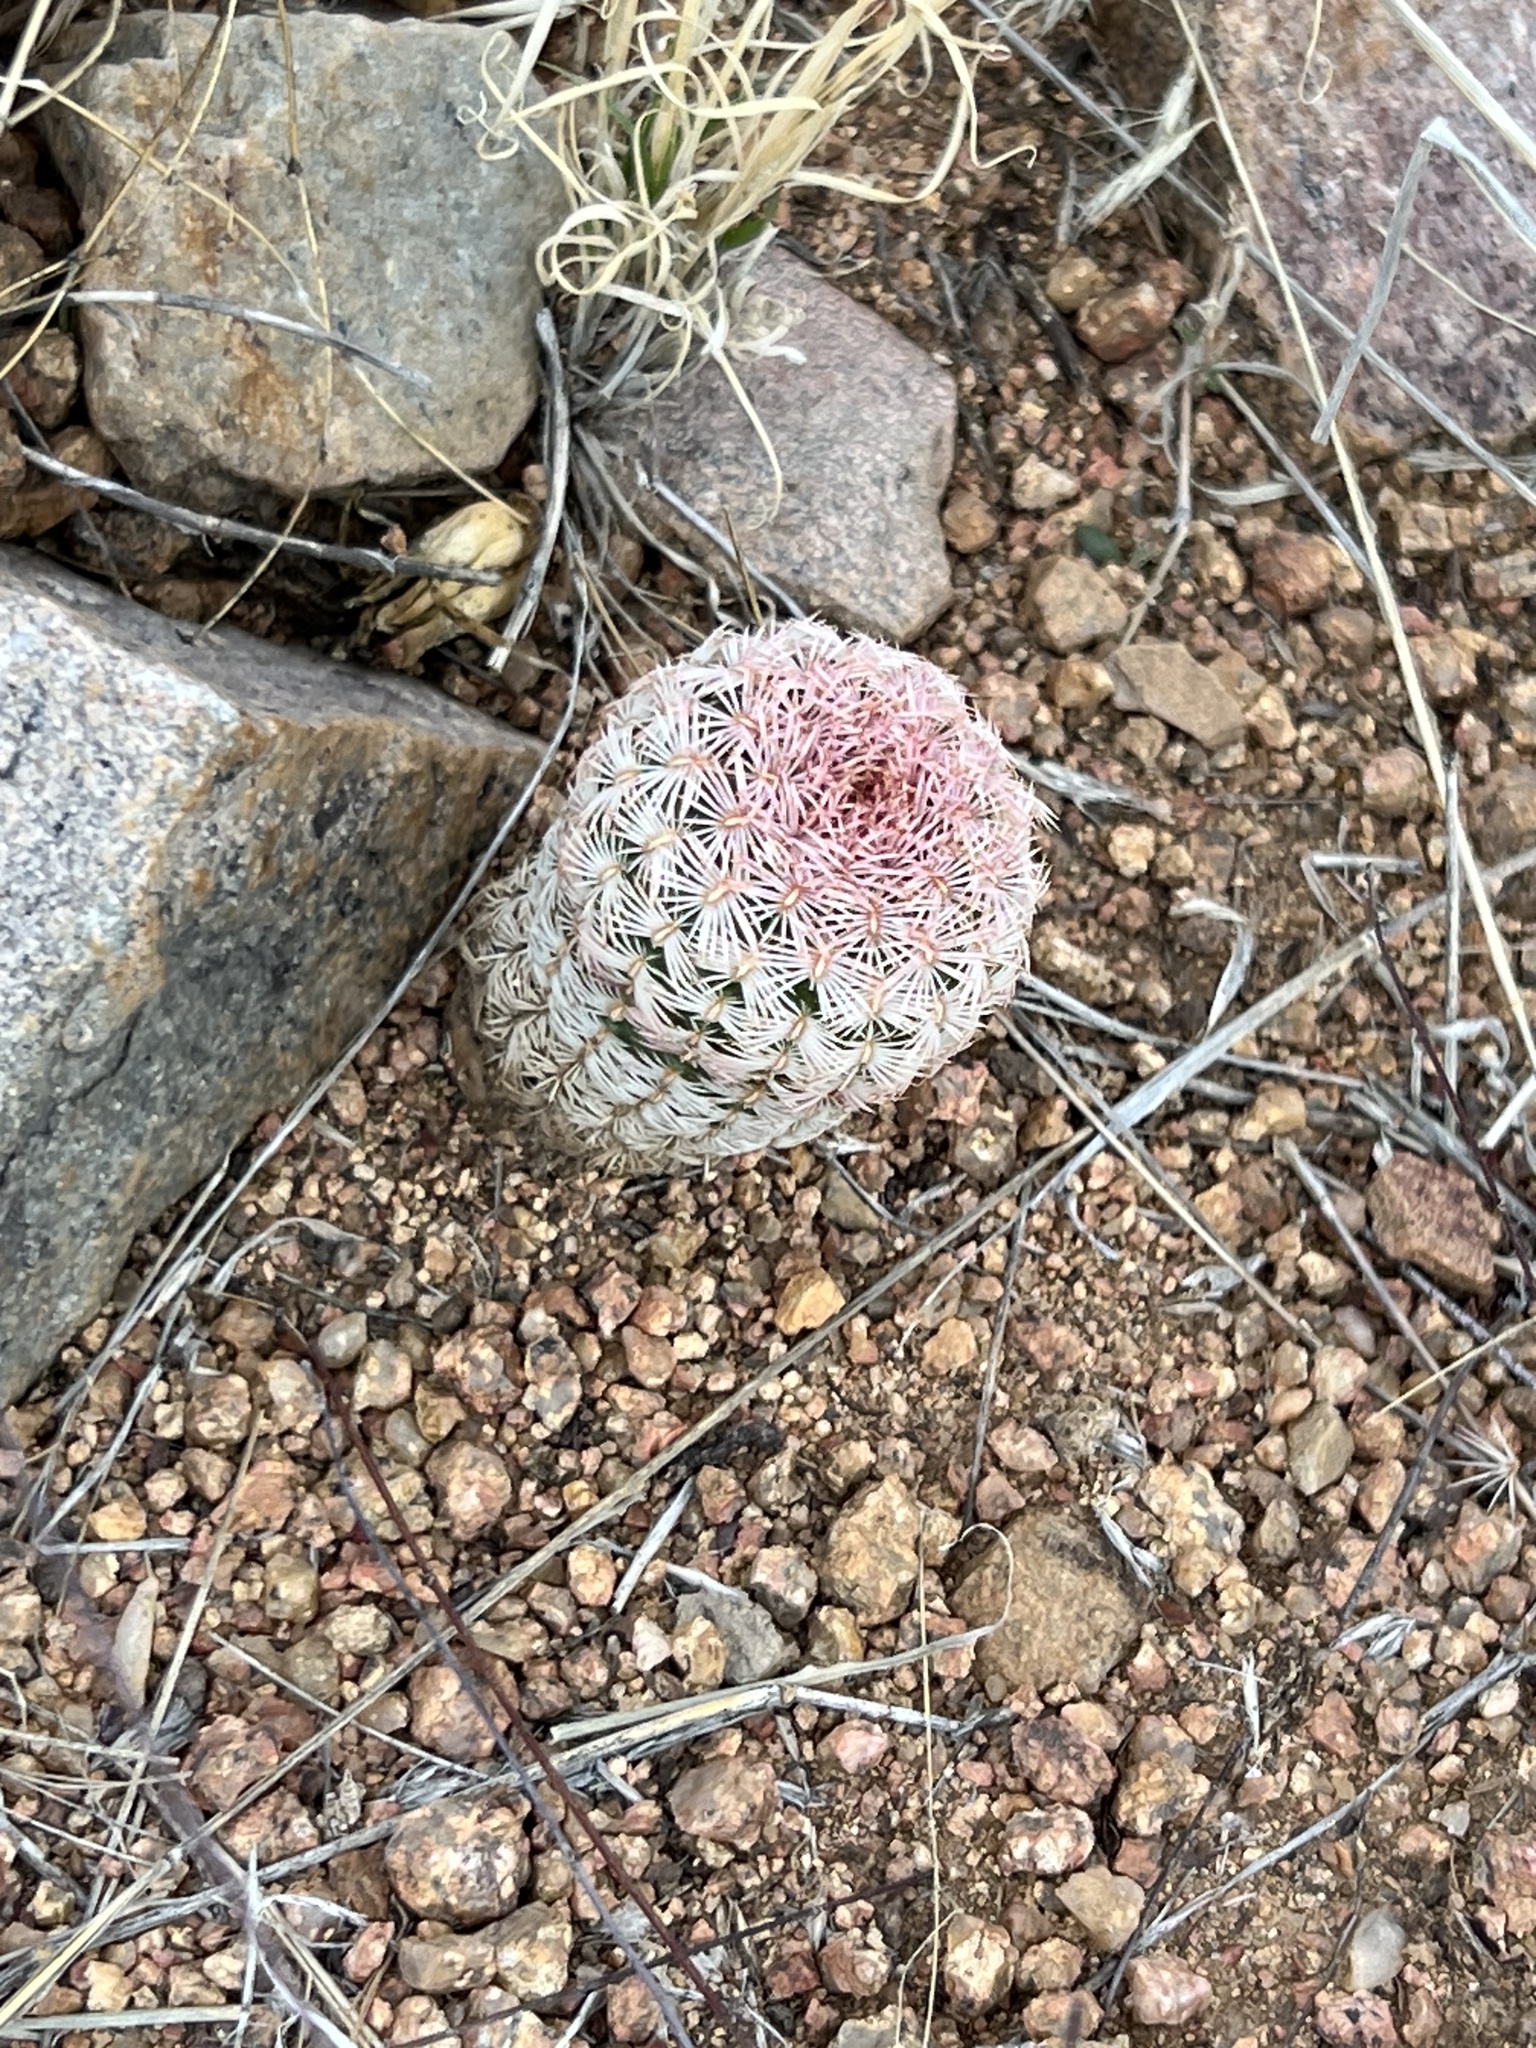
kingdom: Plantae
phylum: Tracheophyta
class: Magnoliopsida
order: Caryophyllales
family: Cactaceae
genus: Echinocereus
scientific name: Echinocereus rigidissimus
